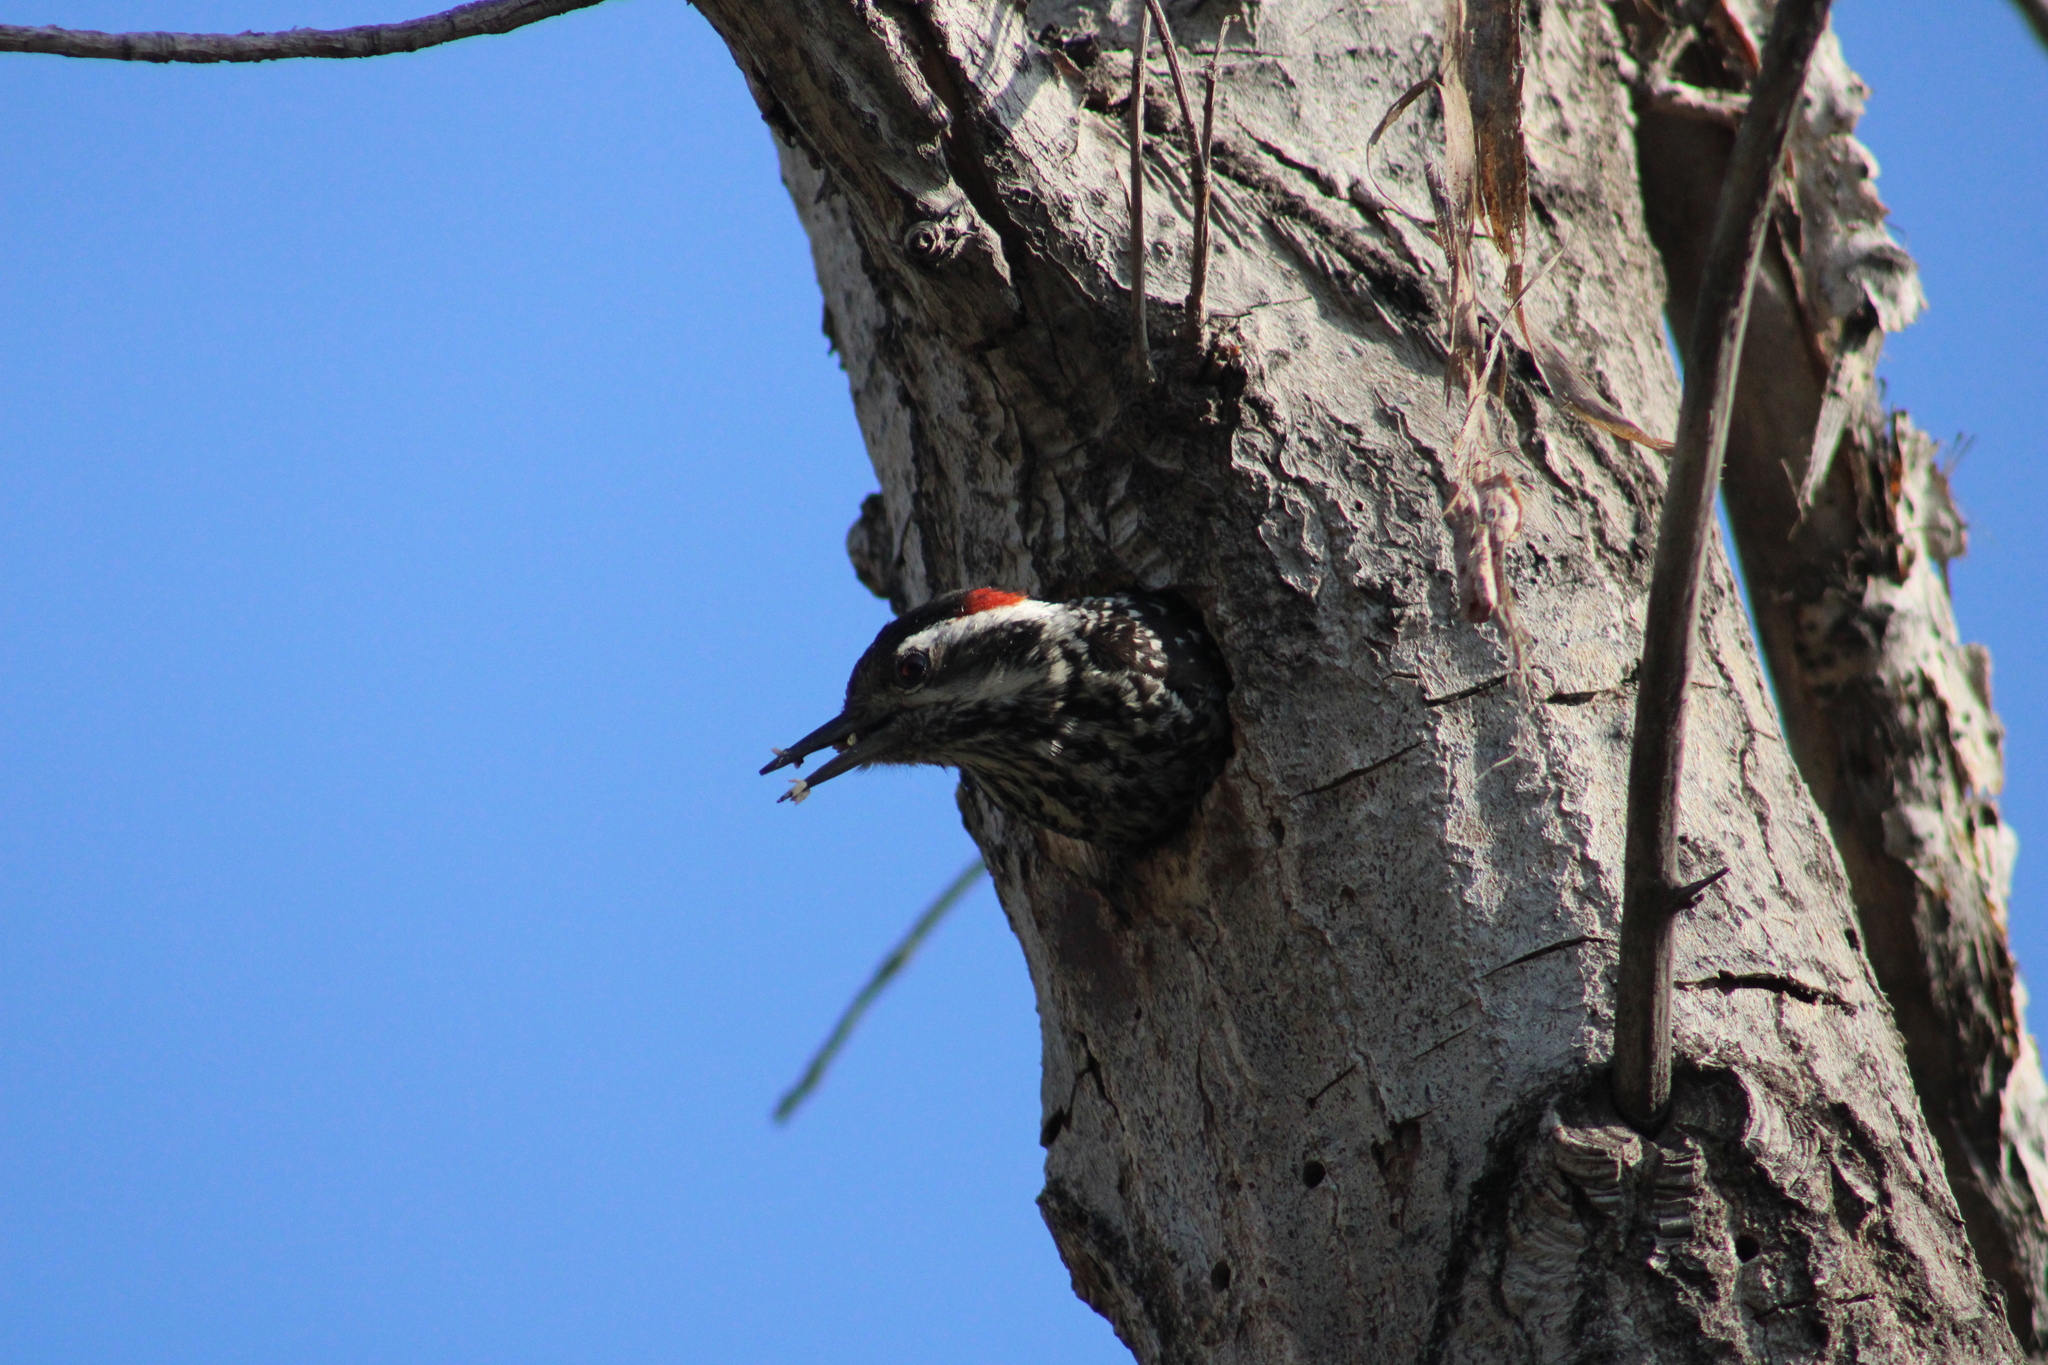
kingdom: Animalia
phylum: Chordata
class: Aves
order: Piciformes
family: Picidae
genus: Veniliornis
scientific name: Veniliornis lignarius
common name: Striped woodpecker
